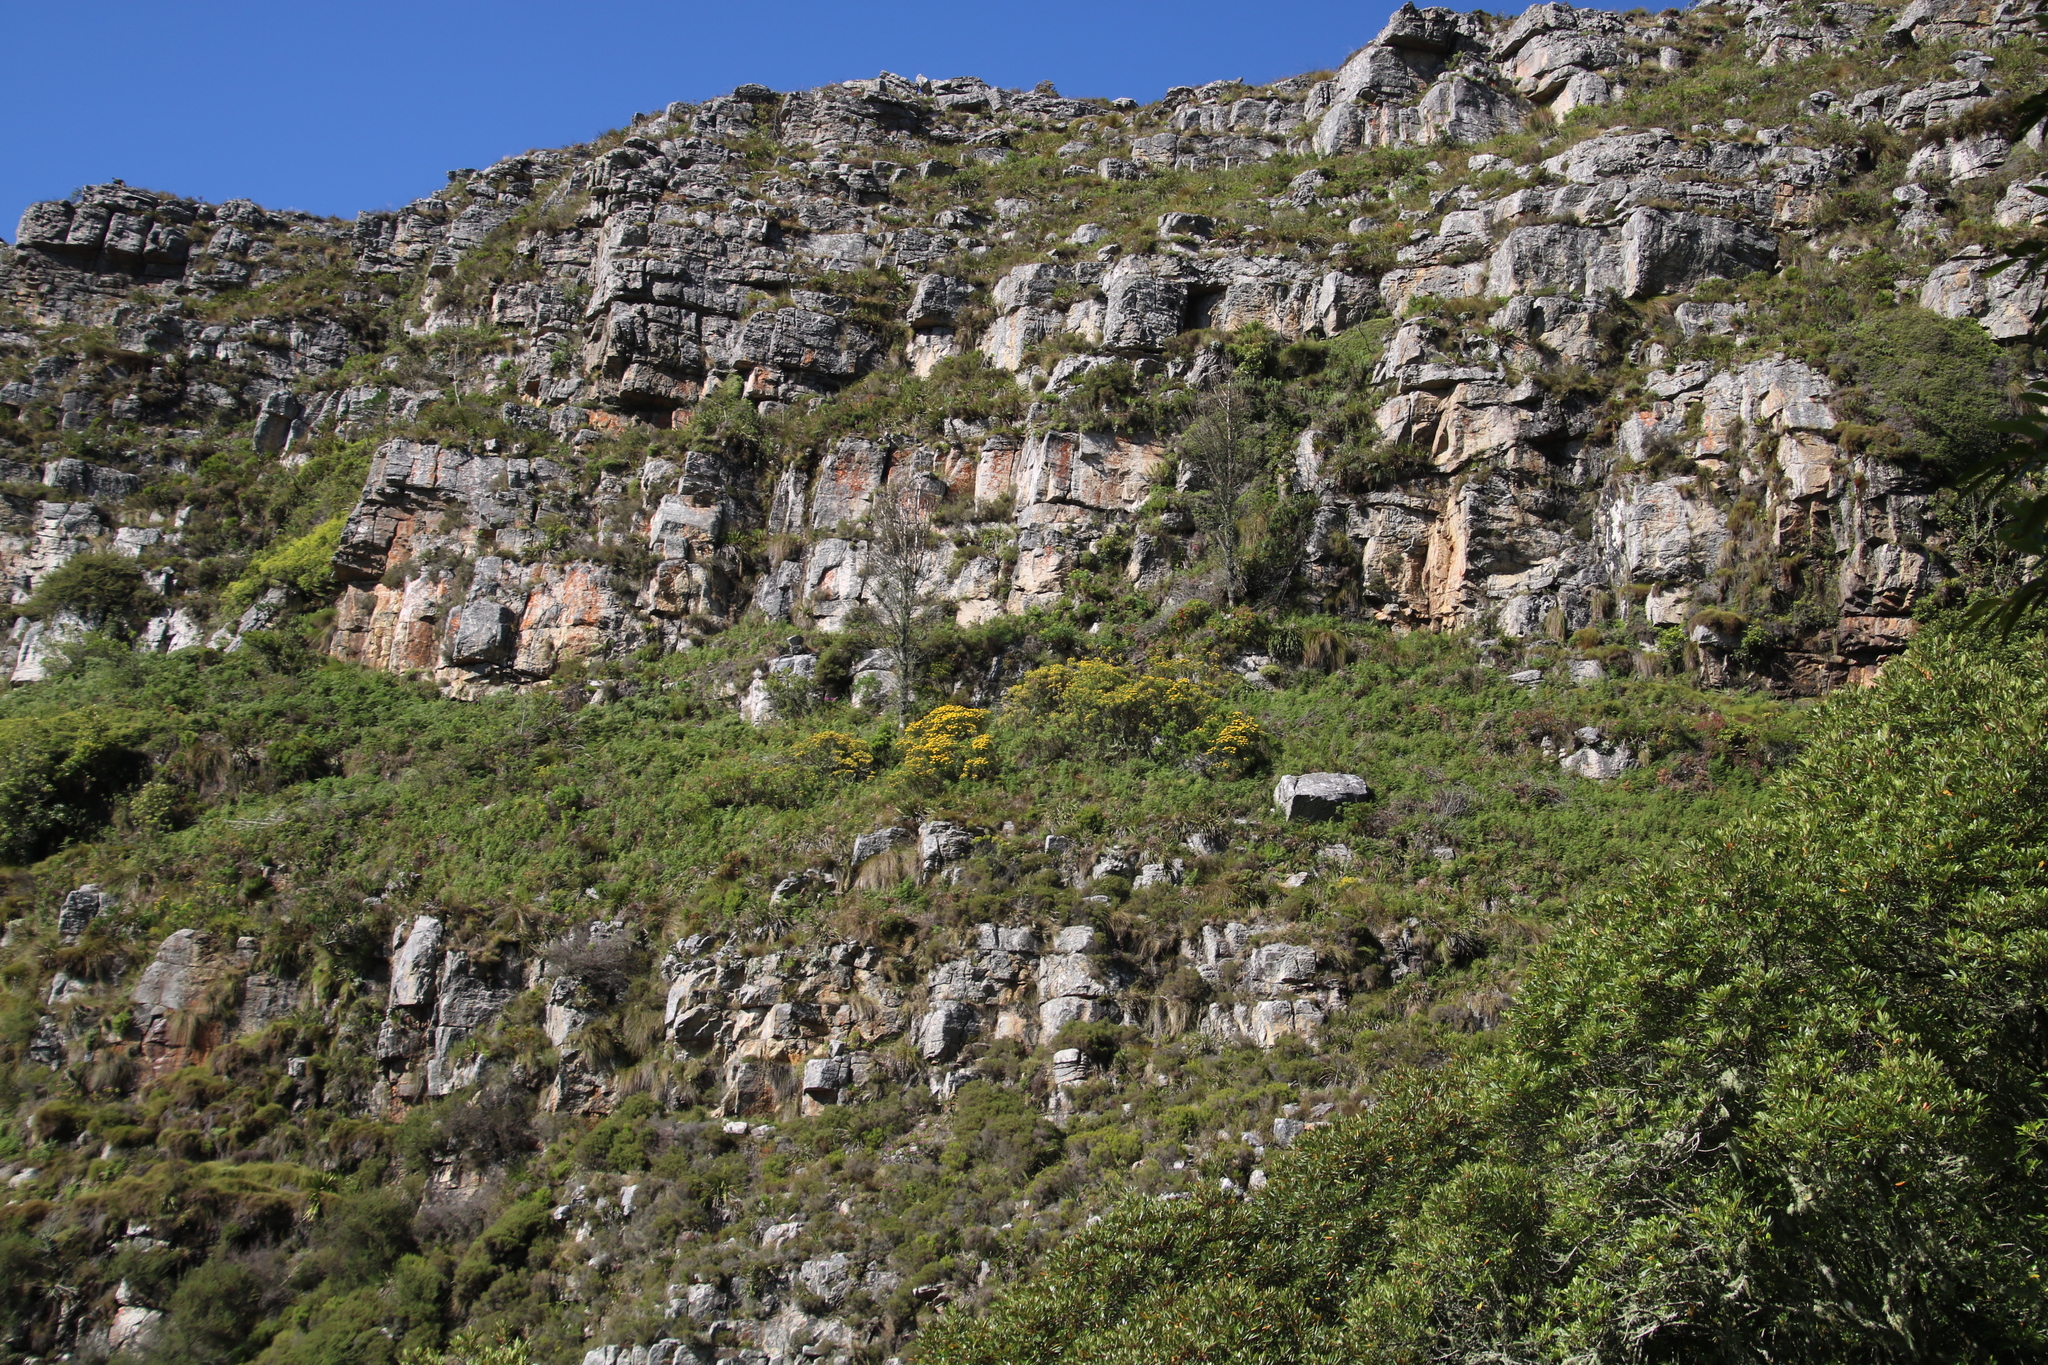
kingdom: Plantae
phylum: Tracheophyta
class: Magnoliopsida
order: Asterales
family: Asteraceae
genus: Hymenolepis
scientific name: Hymenolepis crithmifolia
